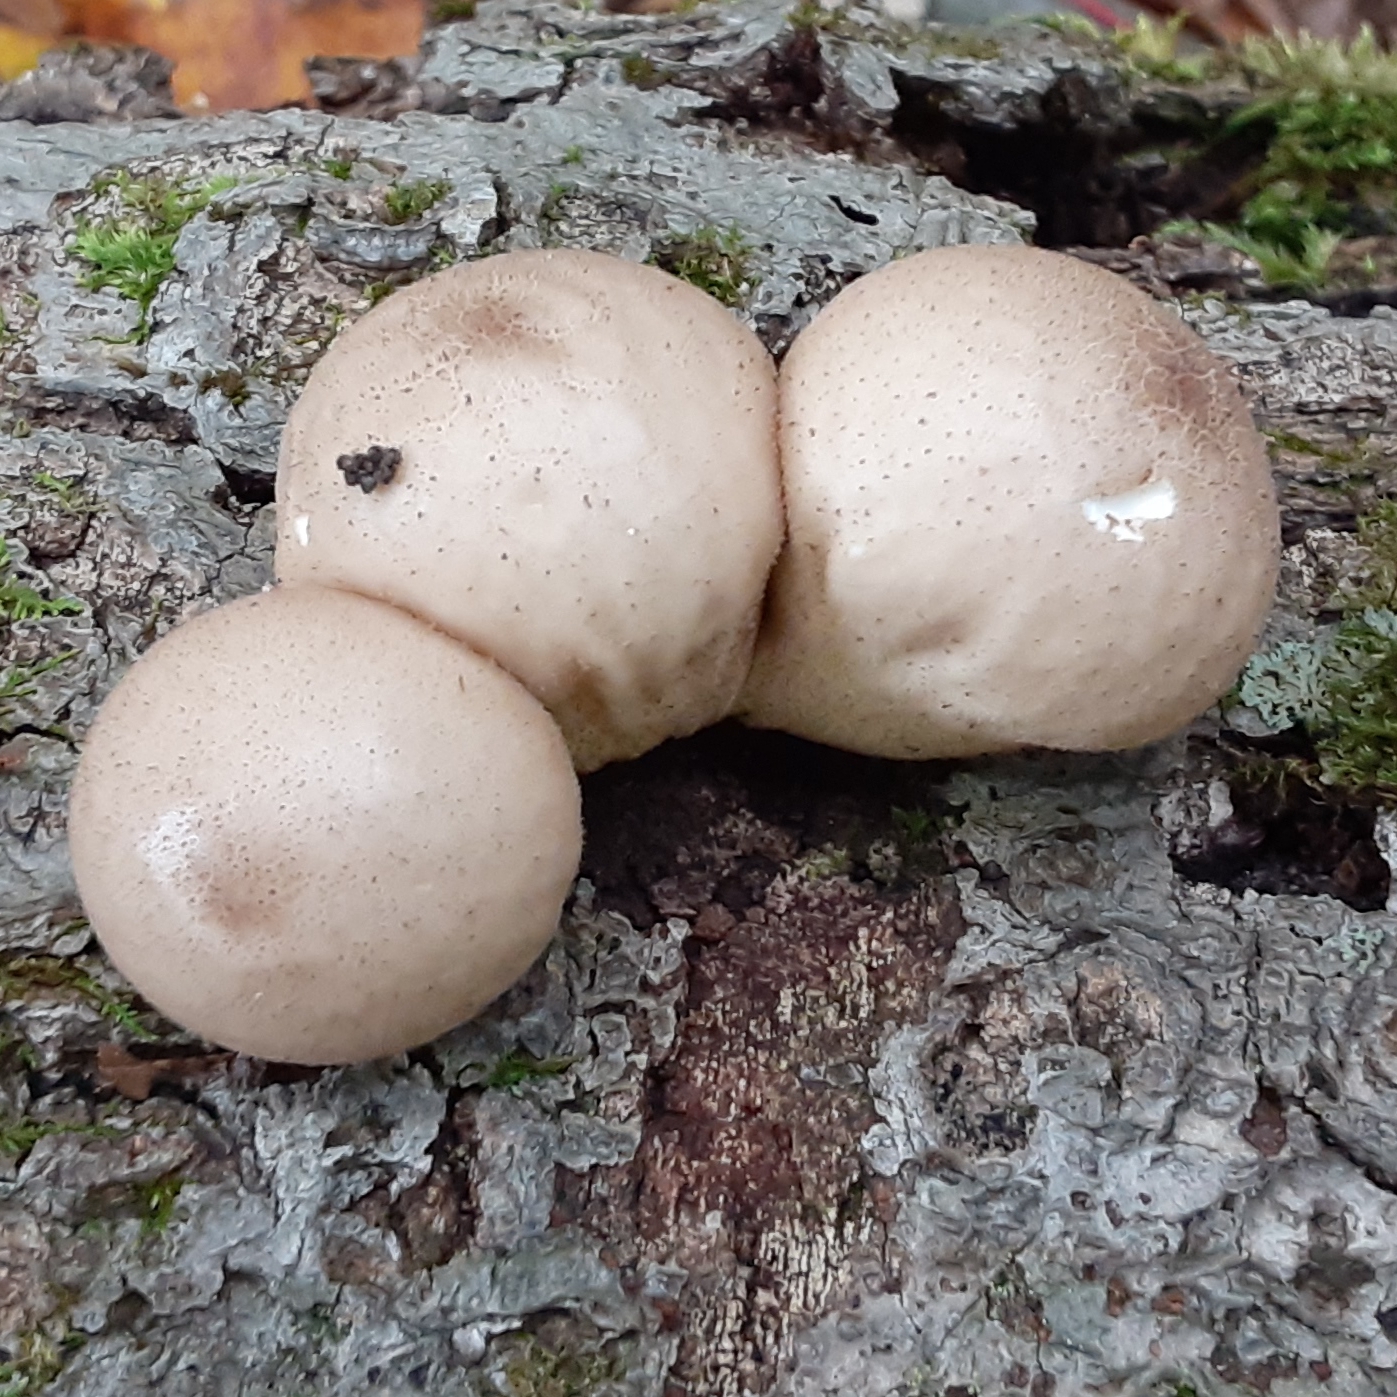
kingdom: Fungi
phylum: Basidiomycota
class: Agaricomycetes
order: Agaricales
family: Lycoperdaceae
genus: Apioperdon
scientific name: Apioperdon pyriforme
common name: Pear-shaped puffball
